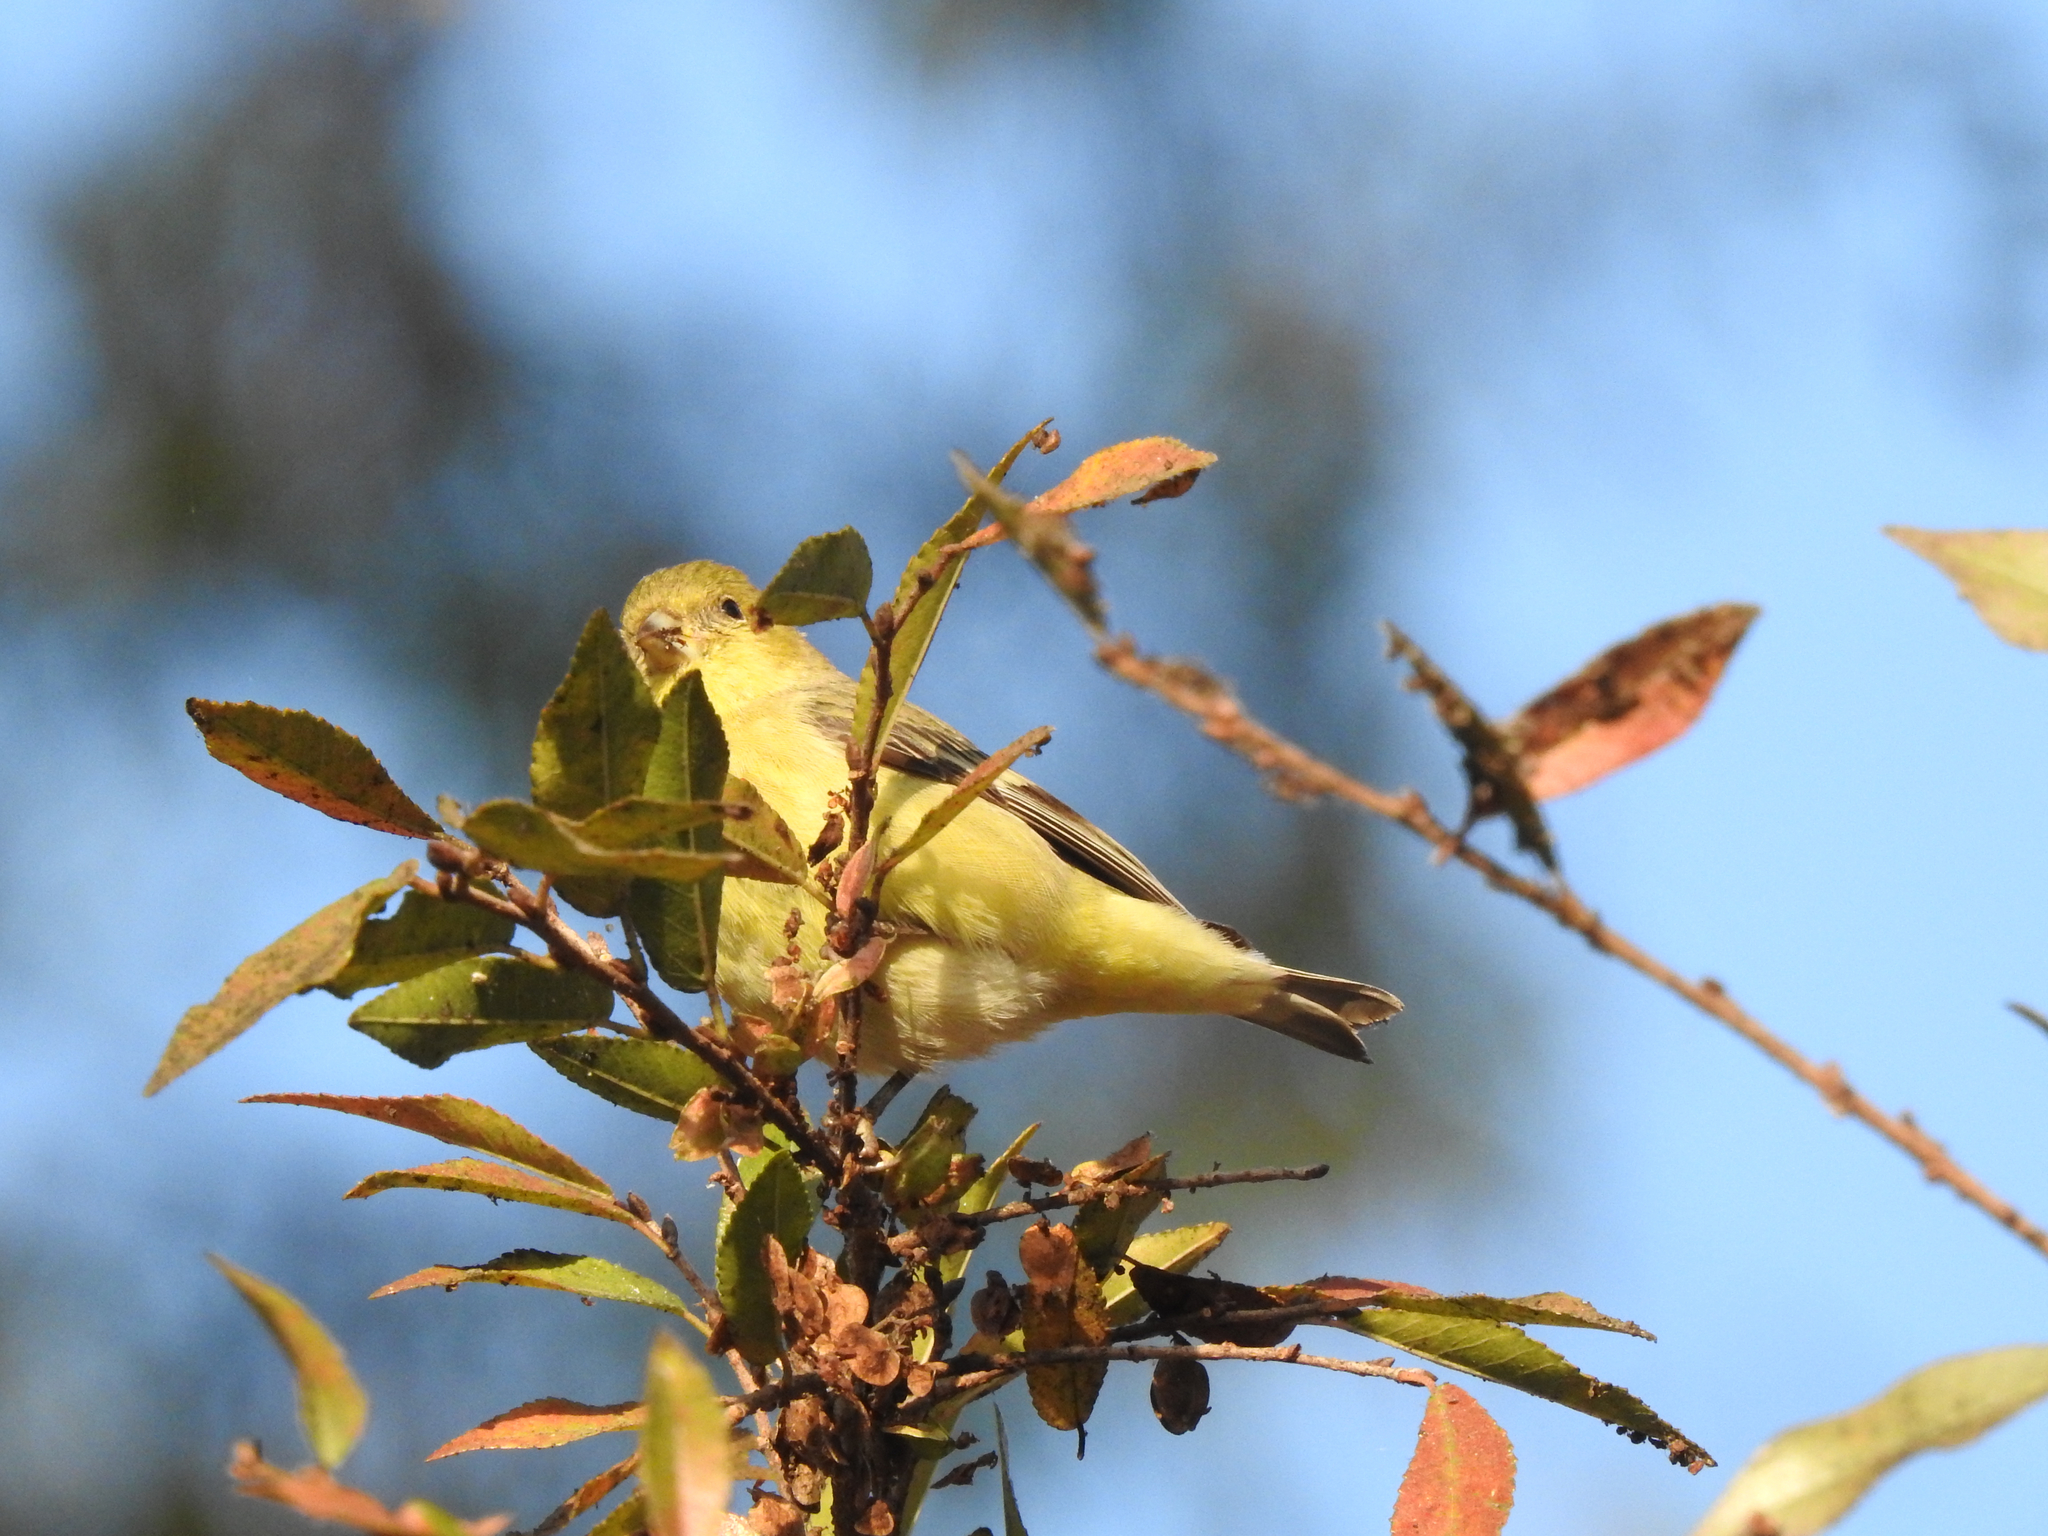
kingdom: Animalia
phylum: Chordata
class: Aves
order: Passeriformes
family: Fringillidae
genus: Spinus
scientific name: Spinus psaltria
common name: Lesser goldfinch
